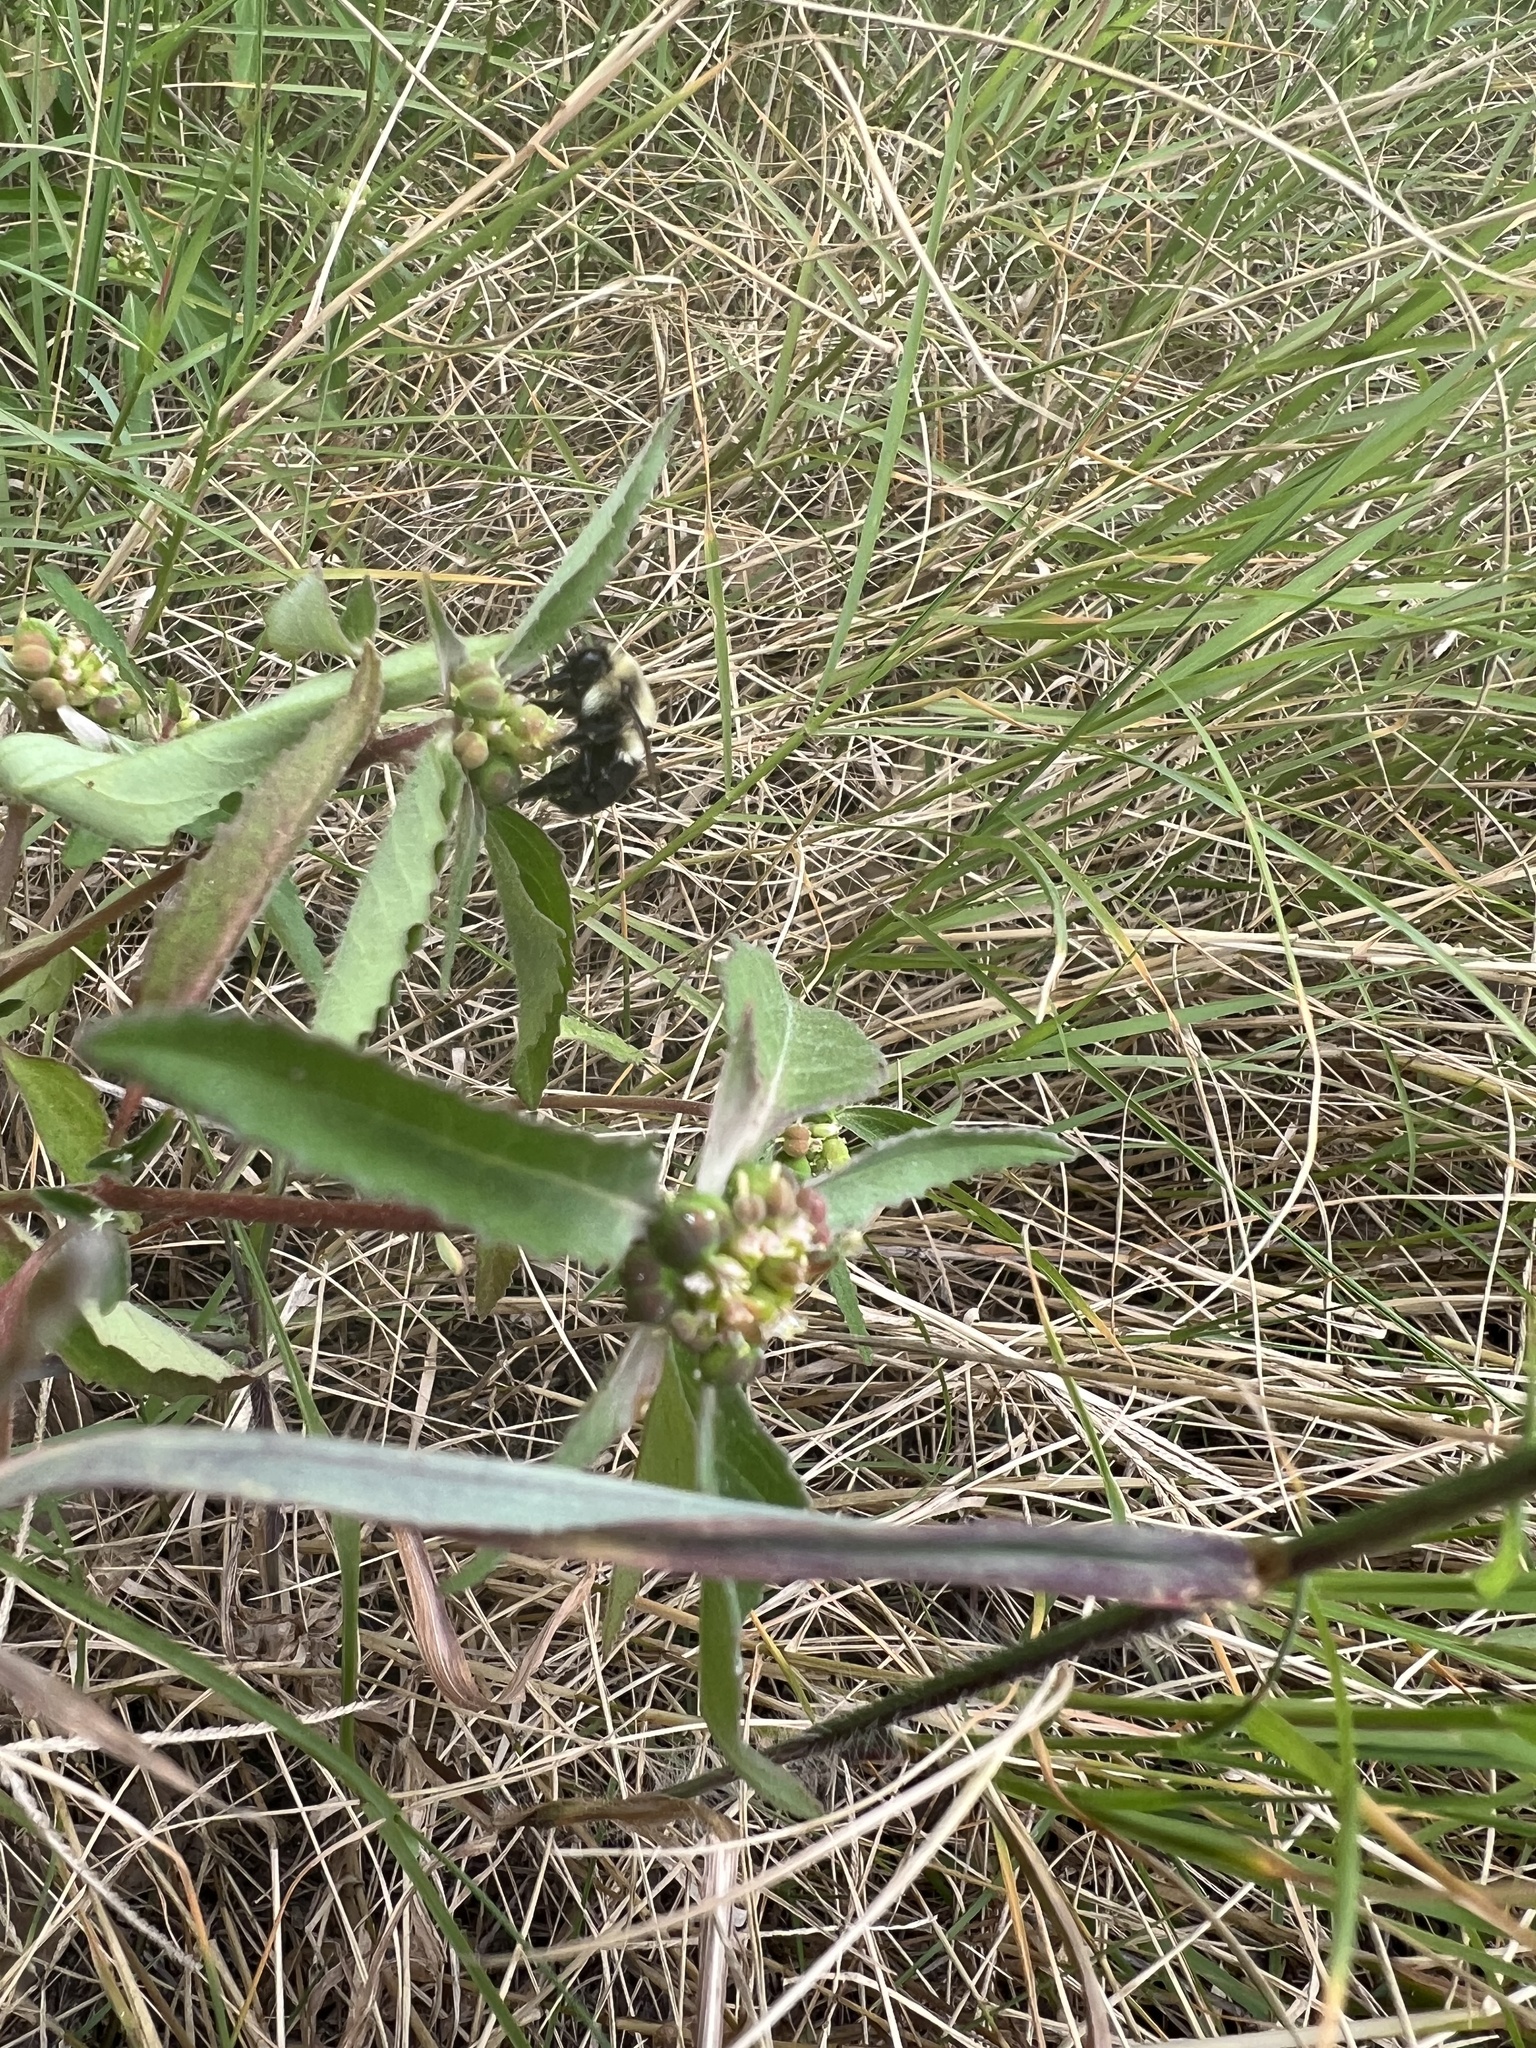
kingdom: Plantae
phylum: Tracheophyta
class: Magnoliopsida
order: Malpighiales
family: Euphorbiaceae
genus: Euphorbia
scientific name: Euphorbia dentata
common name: Dentate spurge
